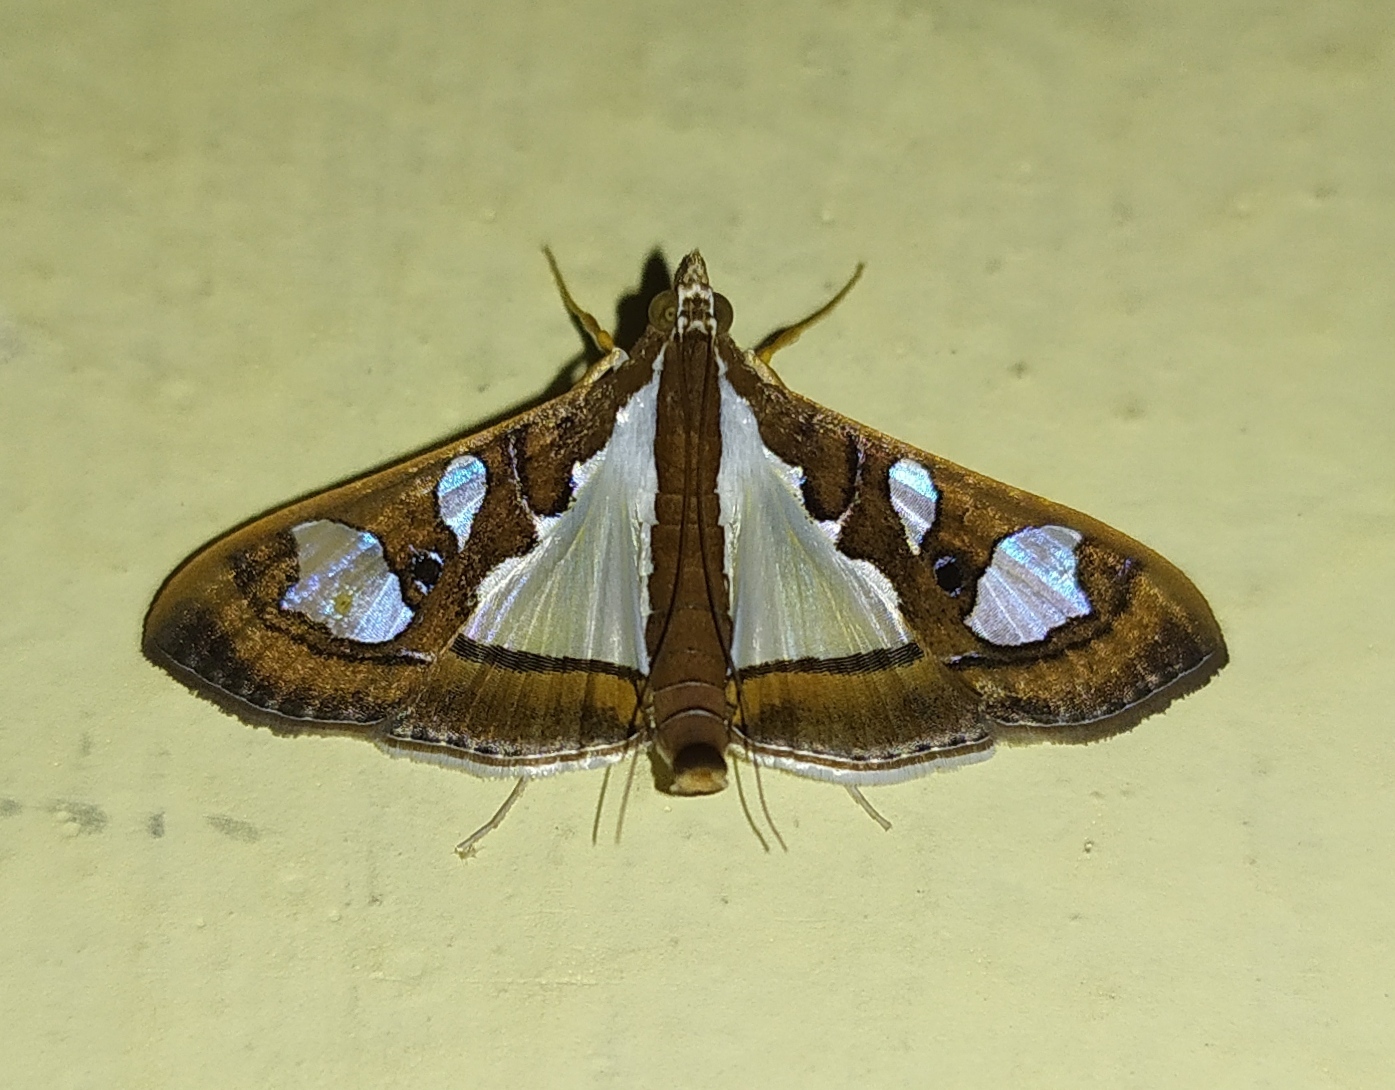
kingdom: Animalia
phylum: Arthropoda
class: Insecta
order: Lepidoptera
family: Crambidae
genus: Glyphodes
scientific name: Glyphodes bivitralis
